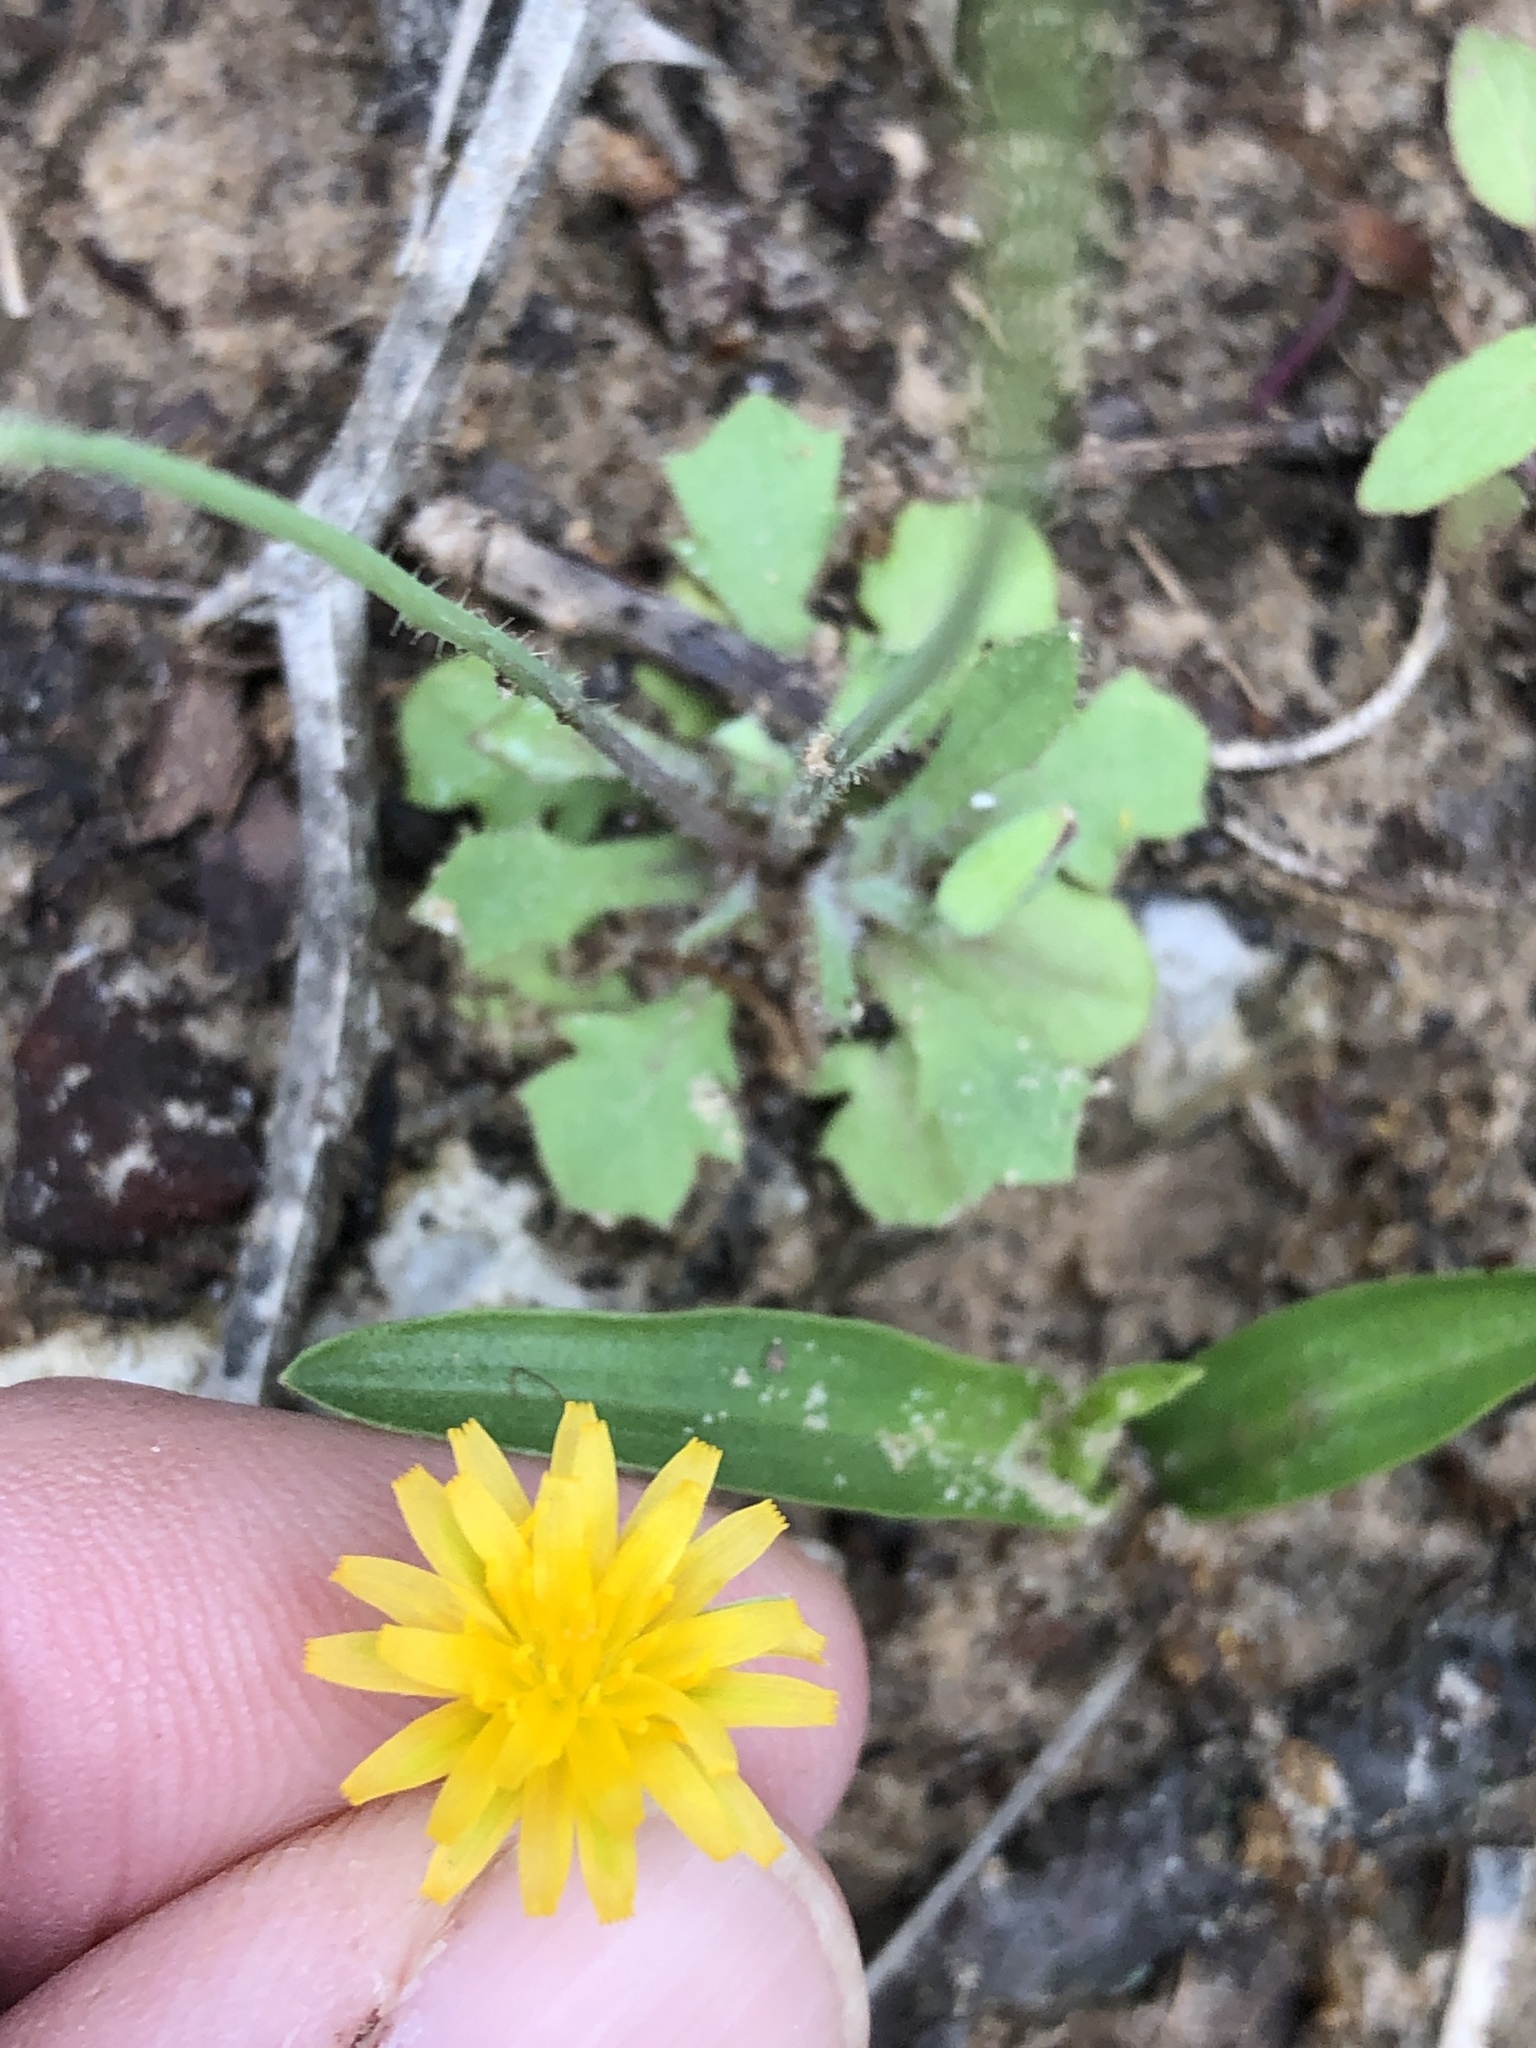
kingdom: Plantae
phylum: Tracheophyta
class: Magnoliopsida
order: Asterales
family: Asteraceae
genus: Krigia
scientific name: Krigia virginica
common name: Virginia dwarf-dandelion
